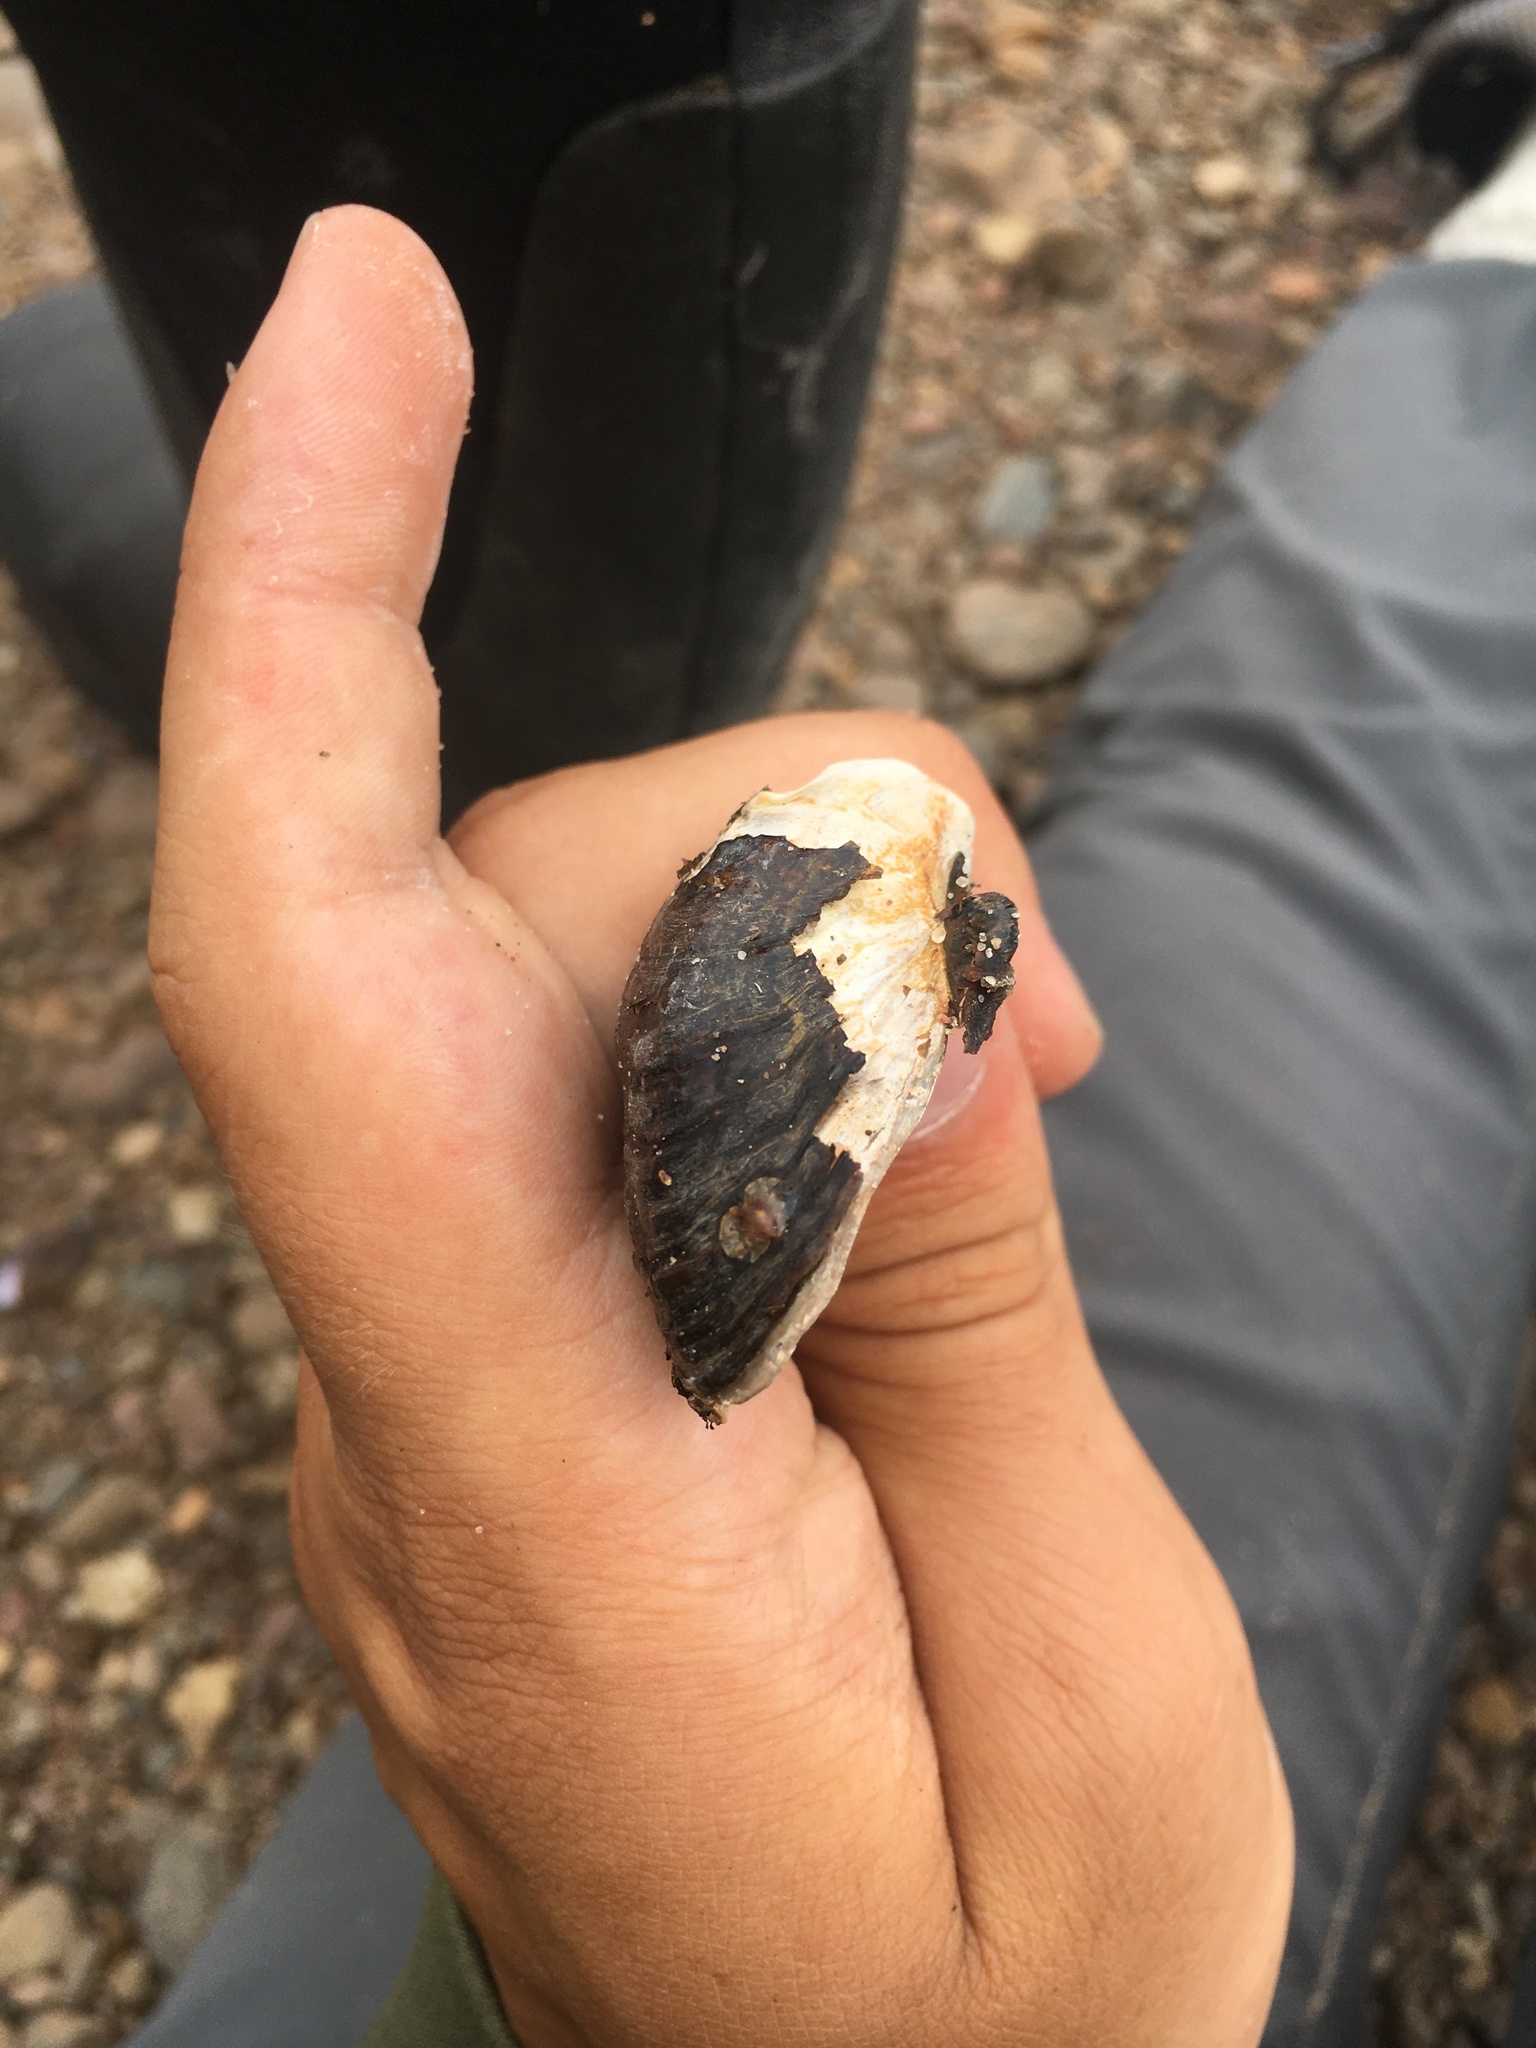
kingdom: Animalia
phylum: Mollusca
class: Bivalvia
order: Unionida
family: Unionidae
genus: Epioblasma
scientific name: Epioblasma triquetra
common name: Snuffbox
